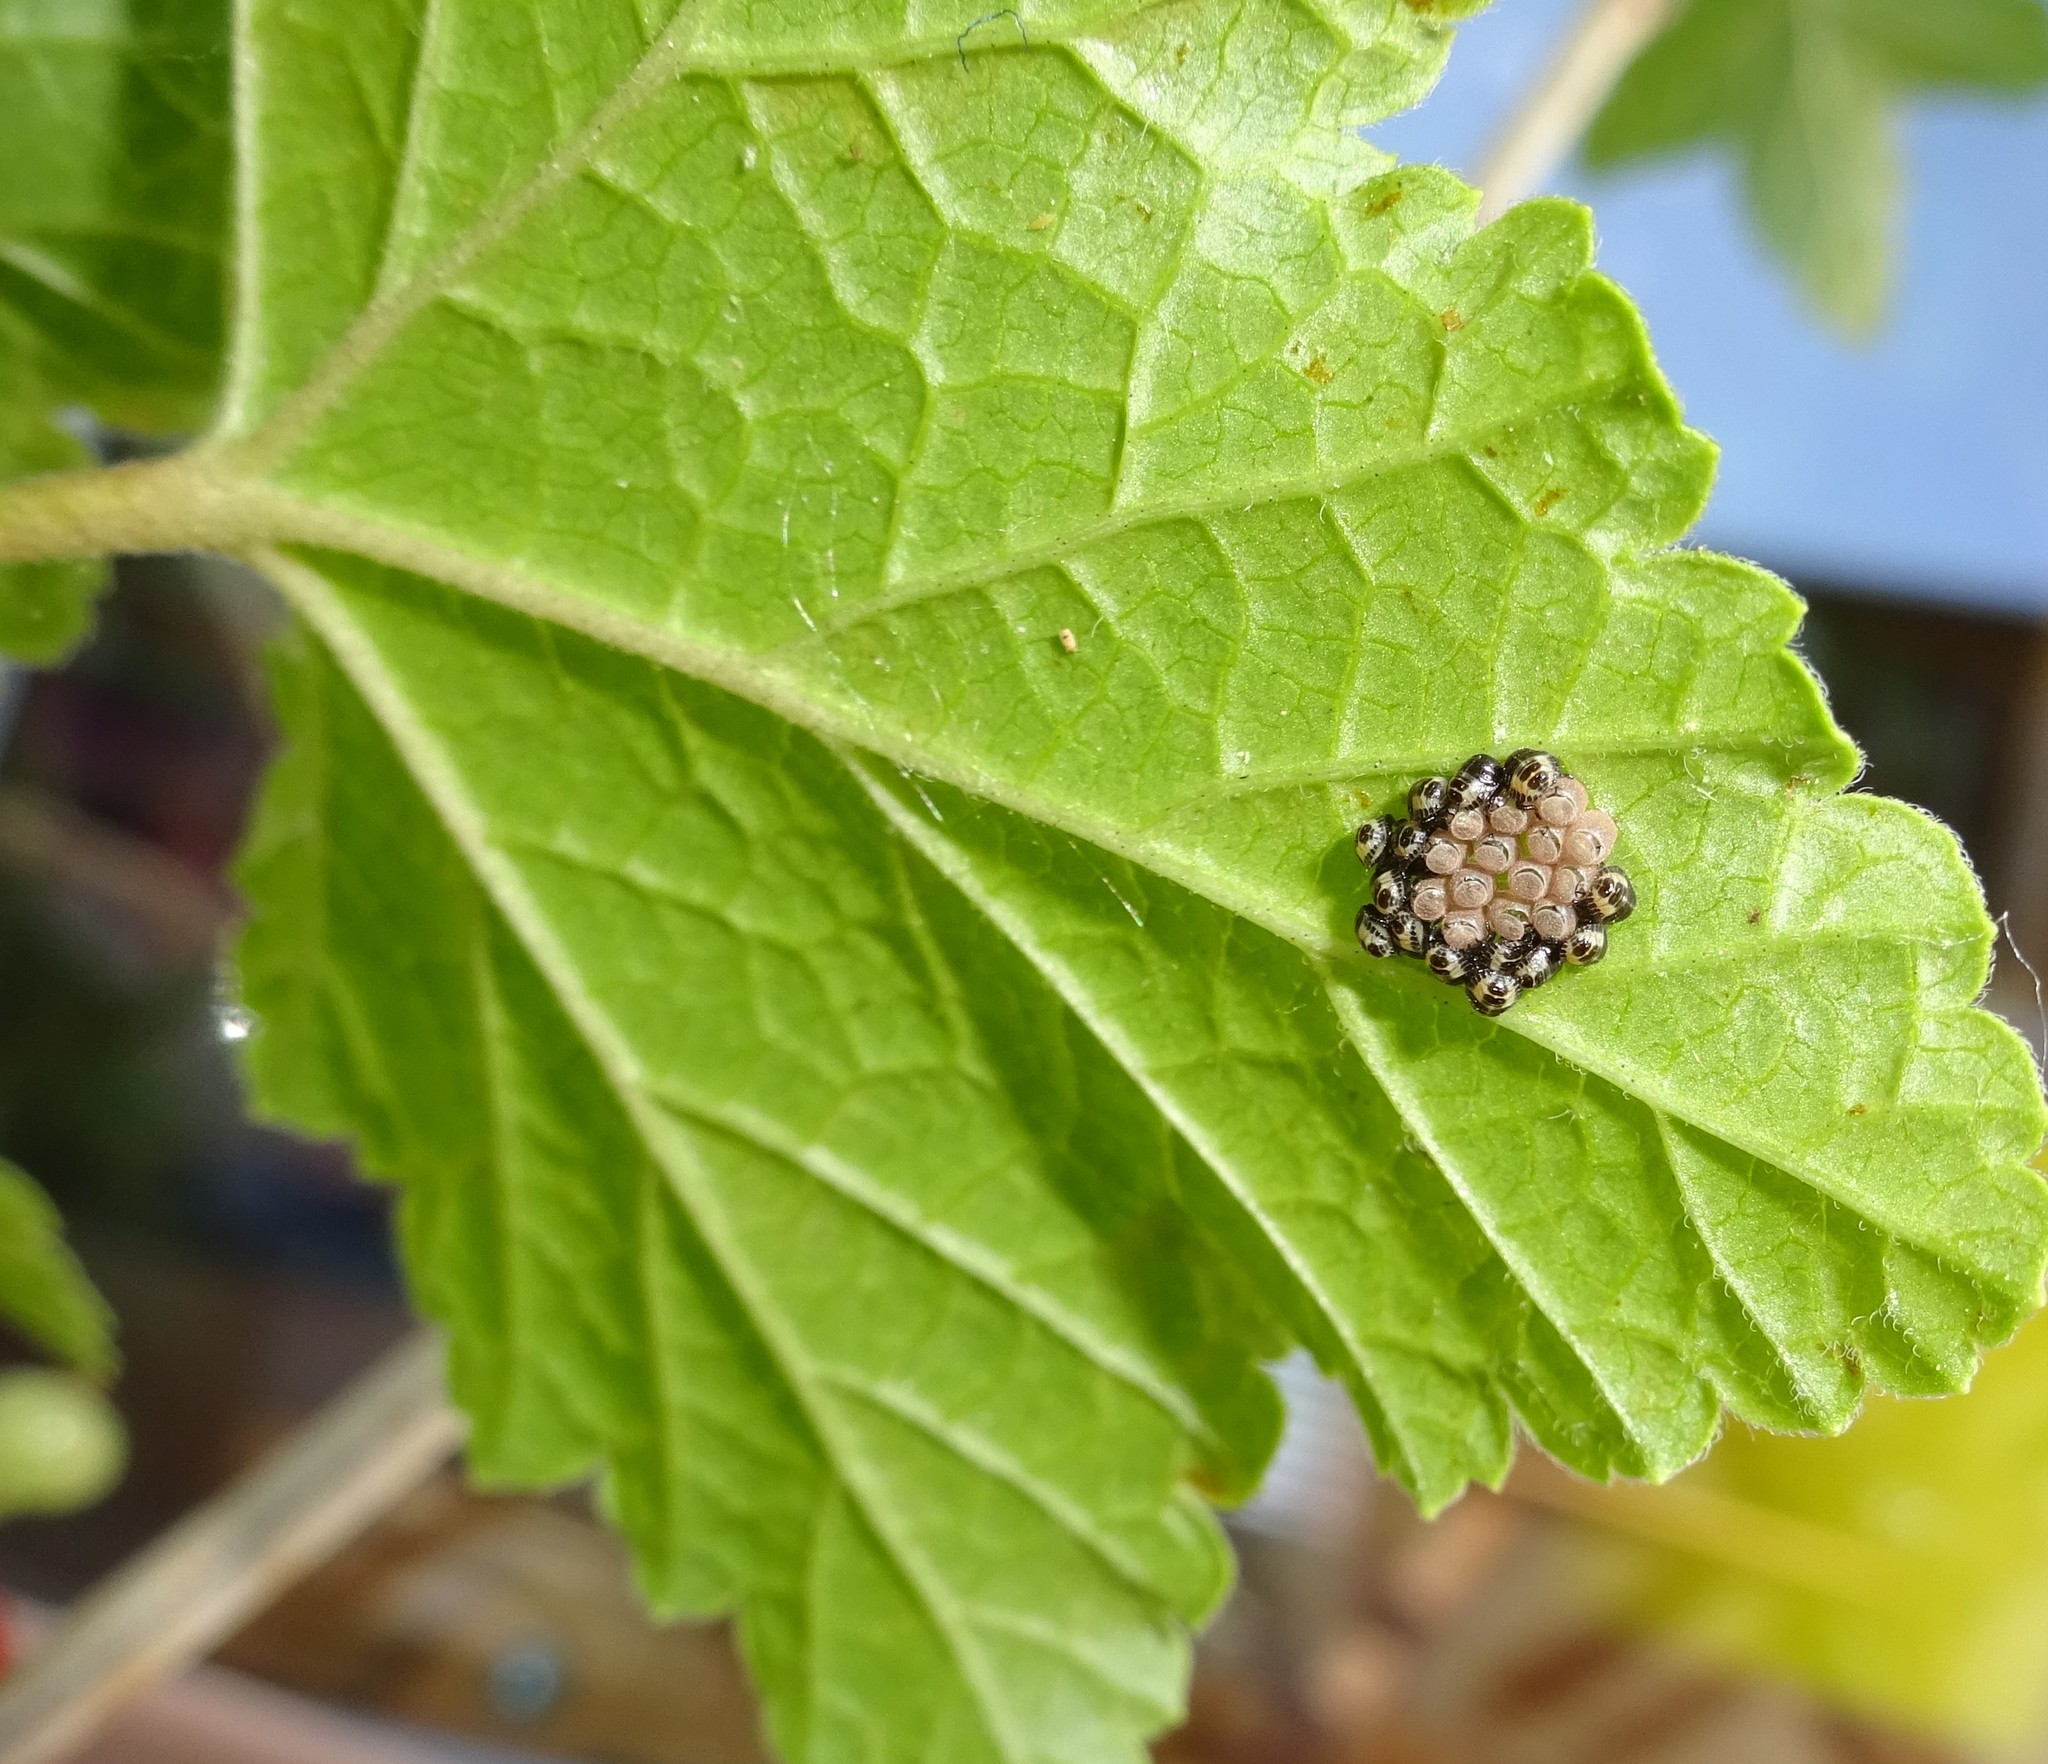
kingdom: Animalia
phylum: Arthropoda
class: Insecta
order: Hemiptera
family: Pentatomidae
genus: Dolycoris
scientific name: Dolycoris baccarum
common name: Sloe bug
